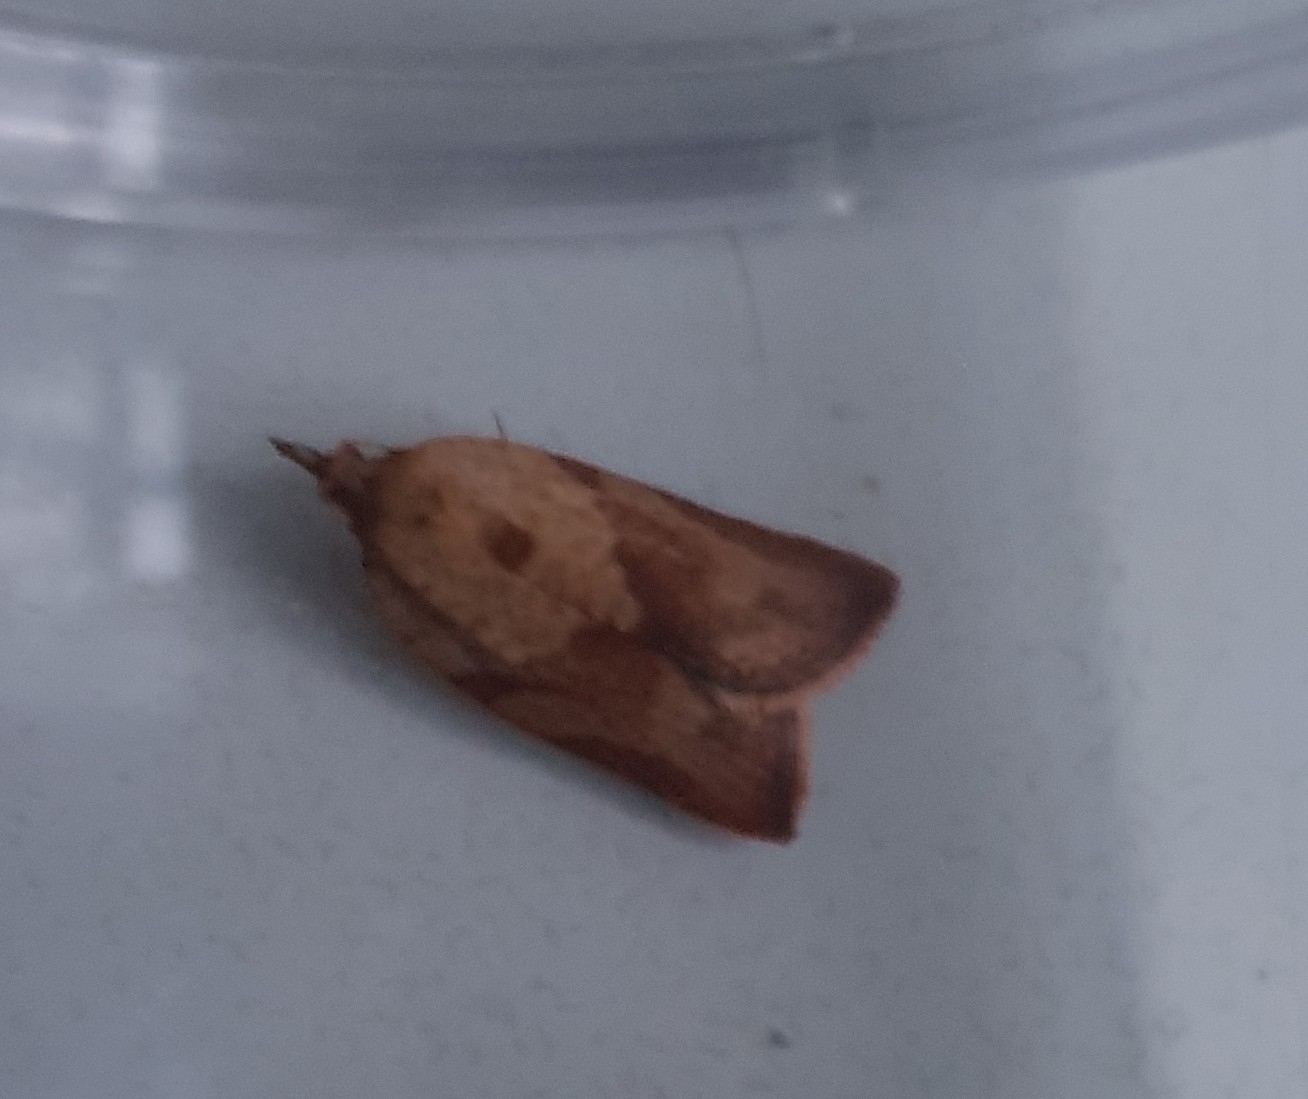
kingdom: Animalia
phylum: Arthropoda
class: Insecta
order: Lepidoptera
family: Tortricidae
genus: Epiphyas
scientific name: Epiphyas postvittana
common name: Light brown apple moth
